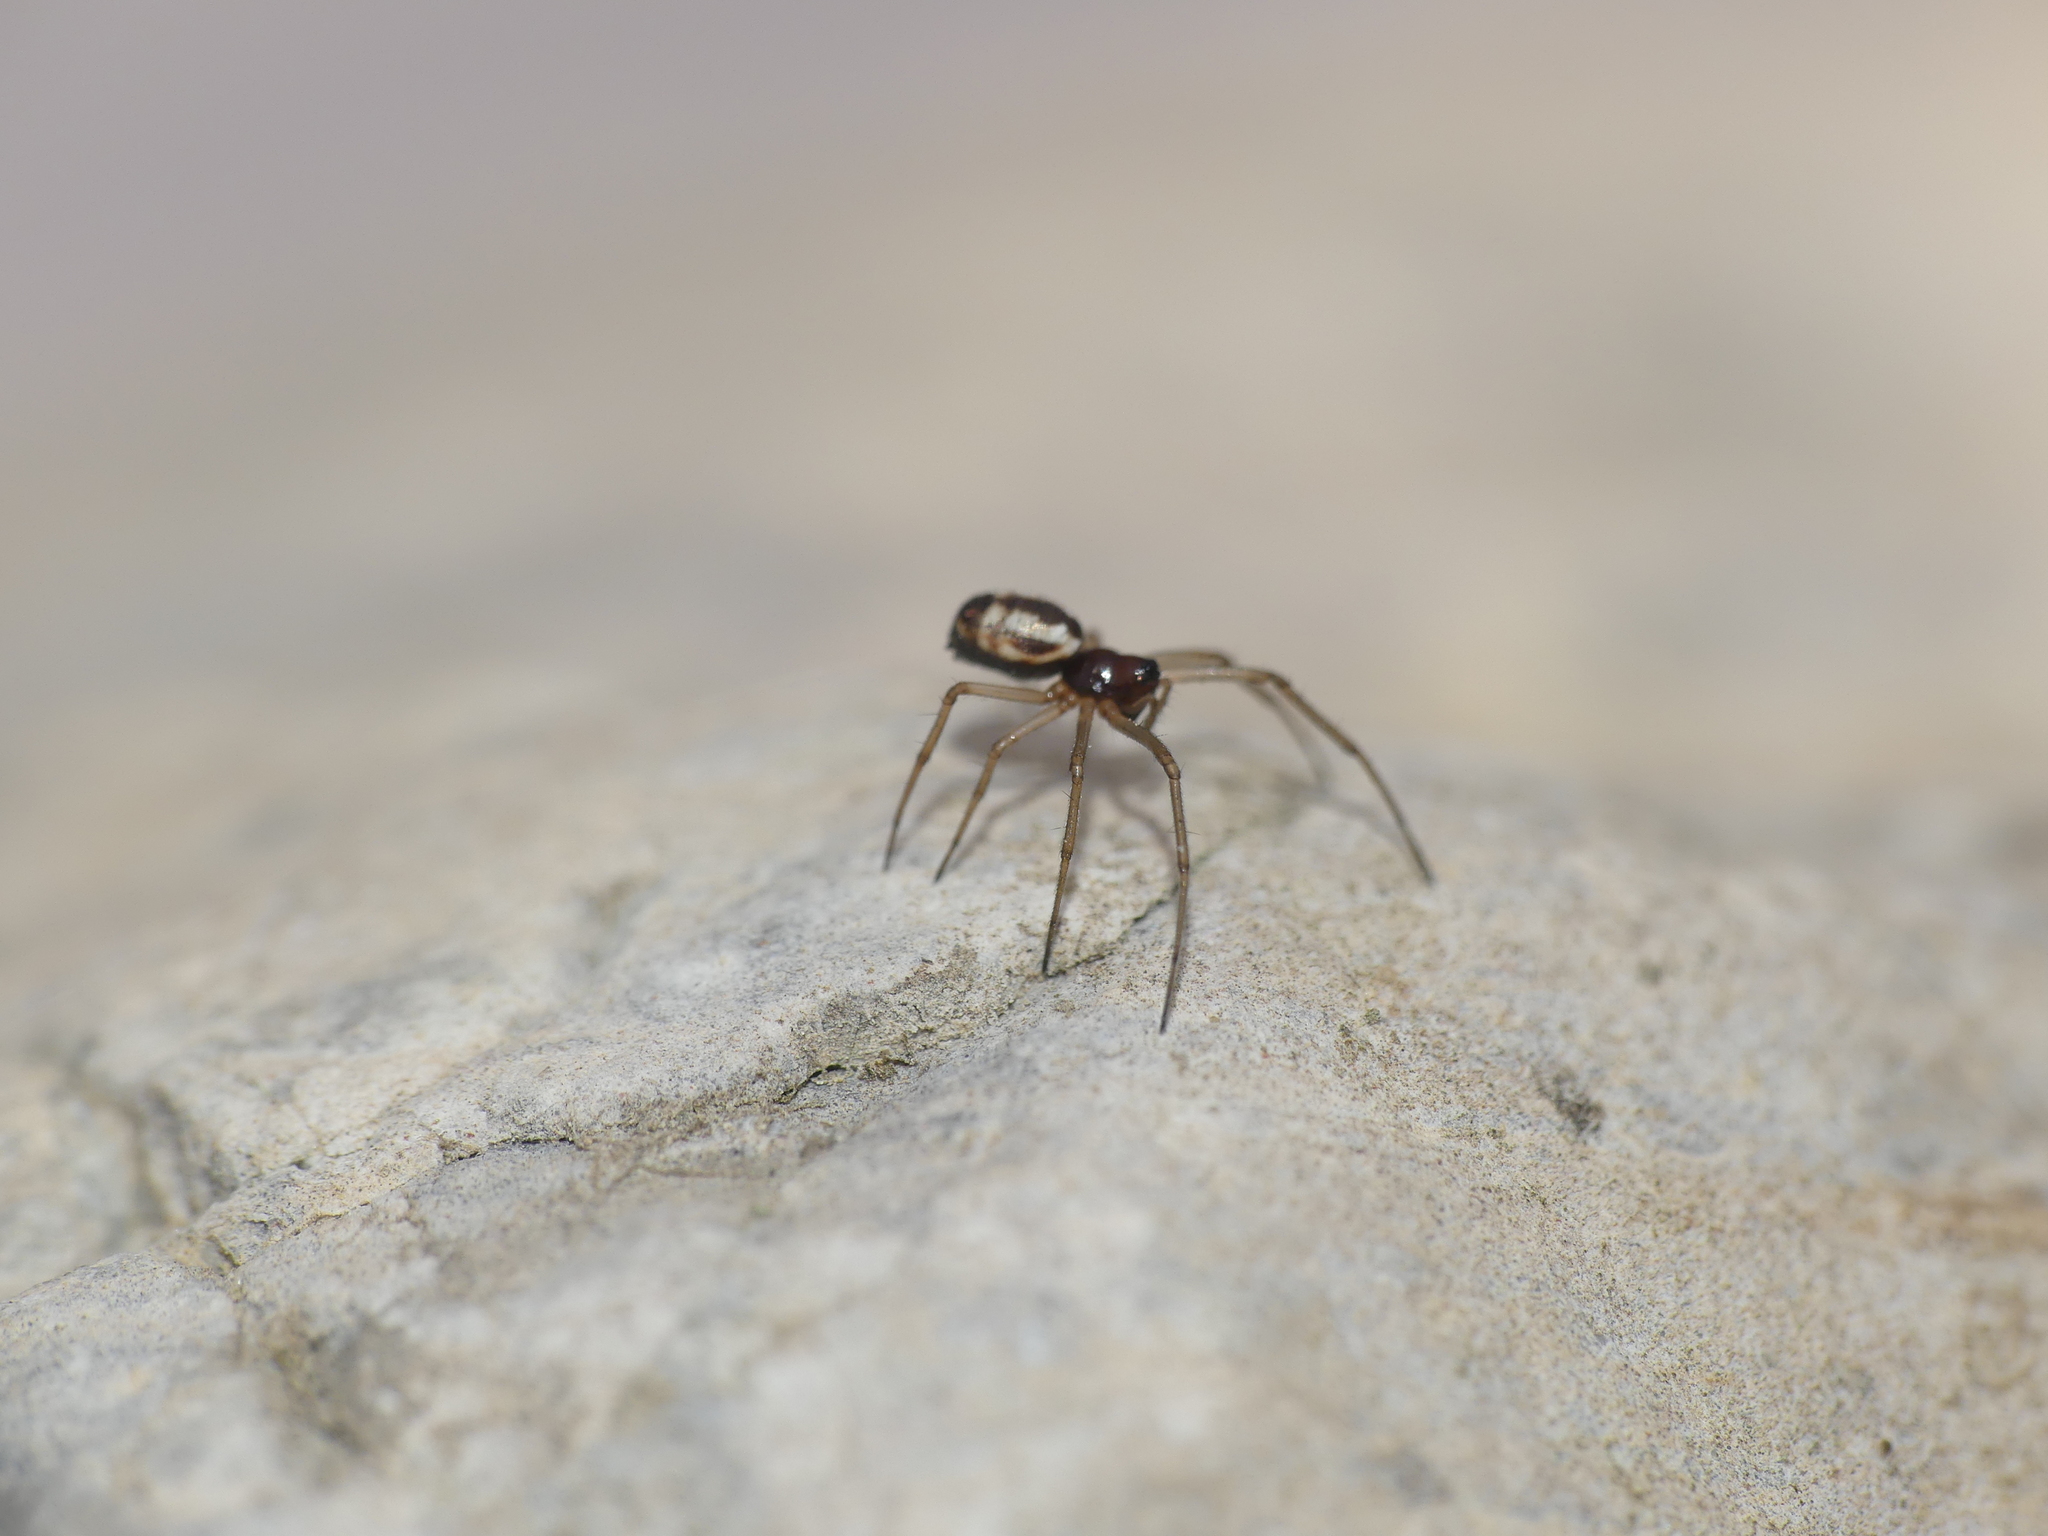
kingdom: Animalia
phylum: Arthropoda
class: Arachnida
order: Araneae
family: Linyphiidae
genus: Microlinyphia
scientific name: Microlinyphia pusilla
